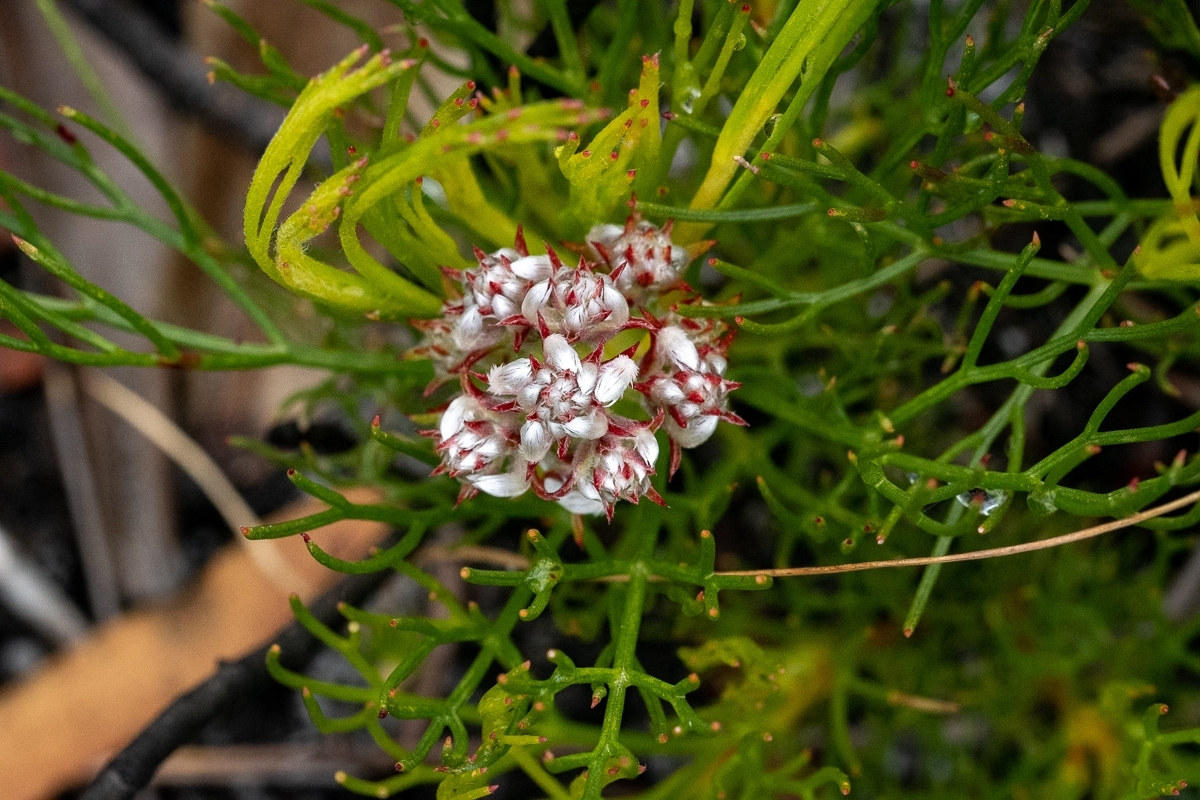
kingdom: Plantae
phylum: Tracheophyta
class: Magnoliopsida
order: Proteales
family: Proteaceae
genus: Serruria
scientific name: Serruria rubricaulis
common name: Red-stem spiderhead
